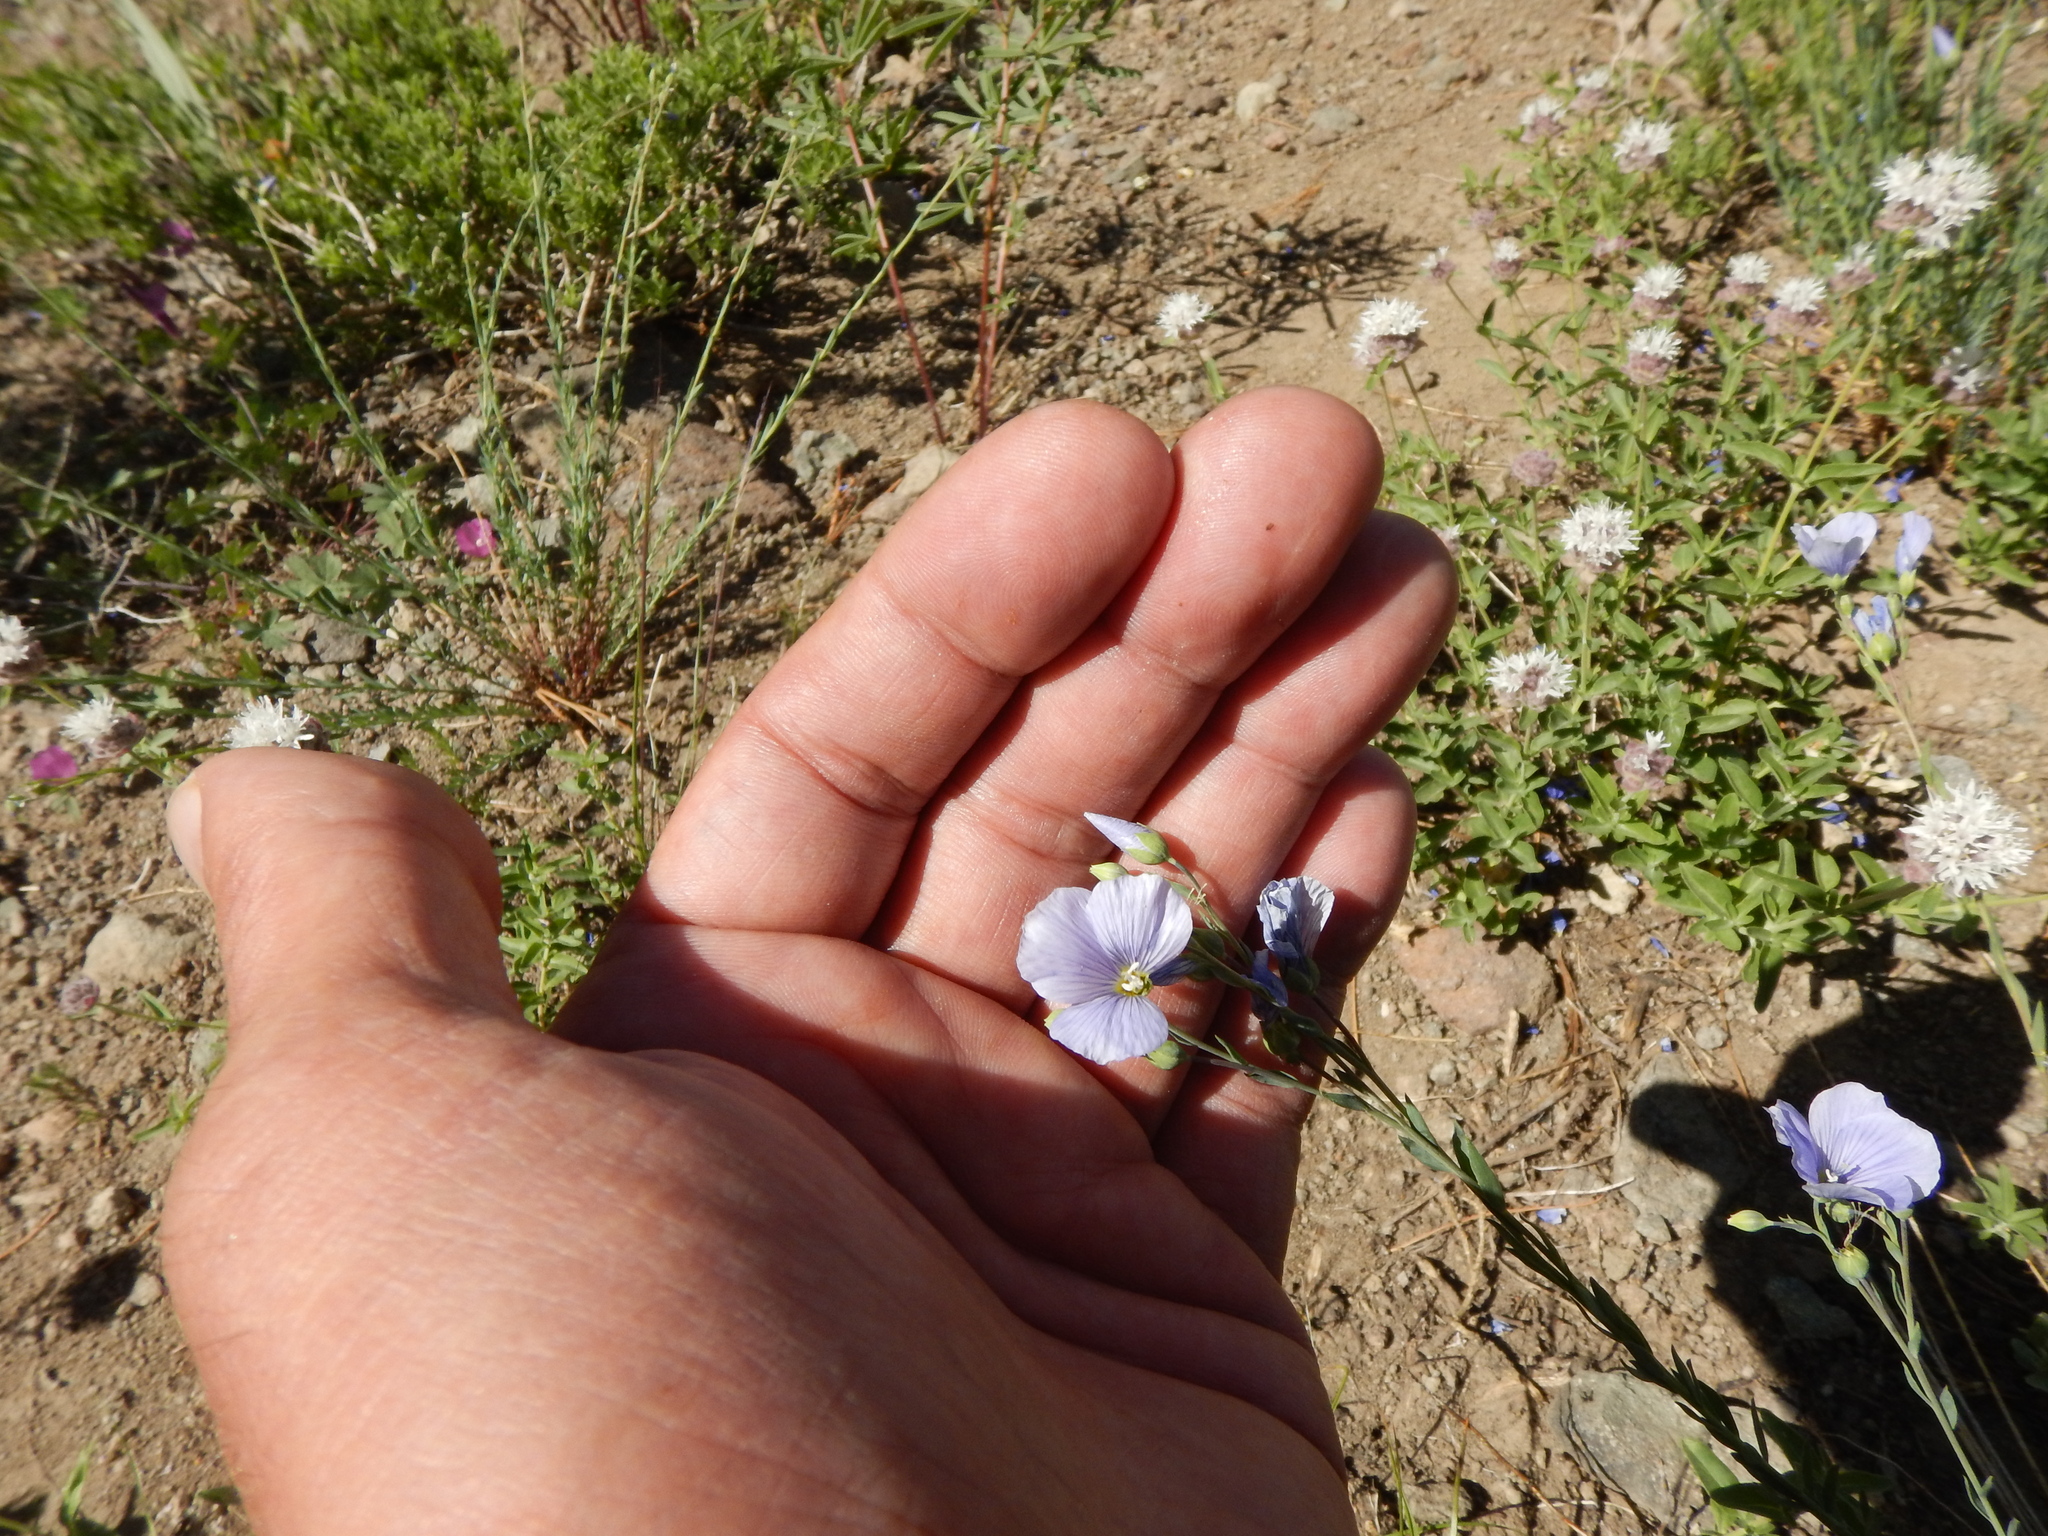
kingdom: Plantae
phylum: Tracheophyta
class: Magnoliopsida
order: Malpighiales
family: Linaceae
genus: Linum
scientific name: Linum lewisii
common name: Prairie flax
